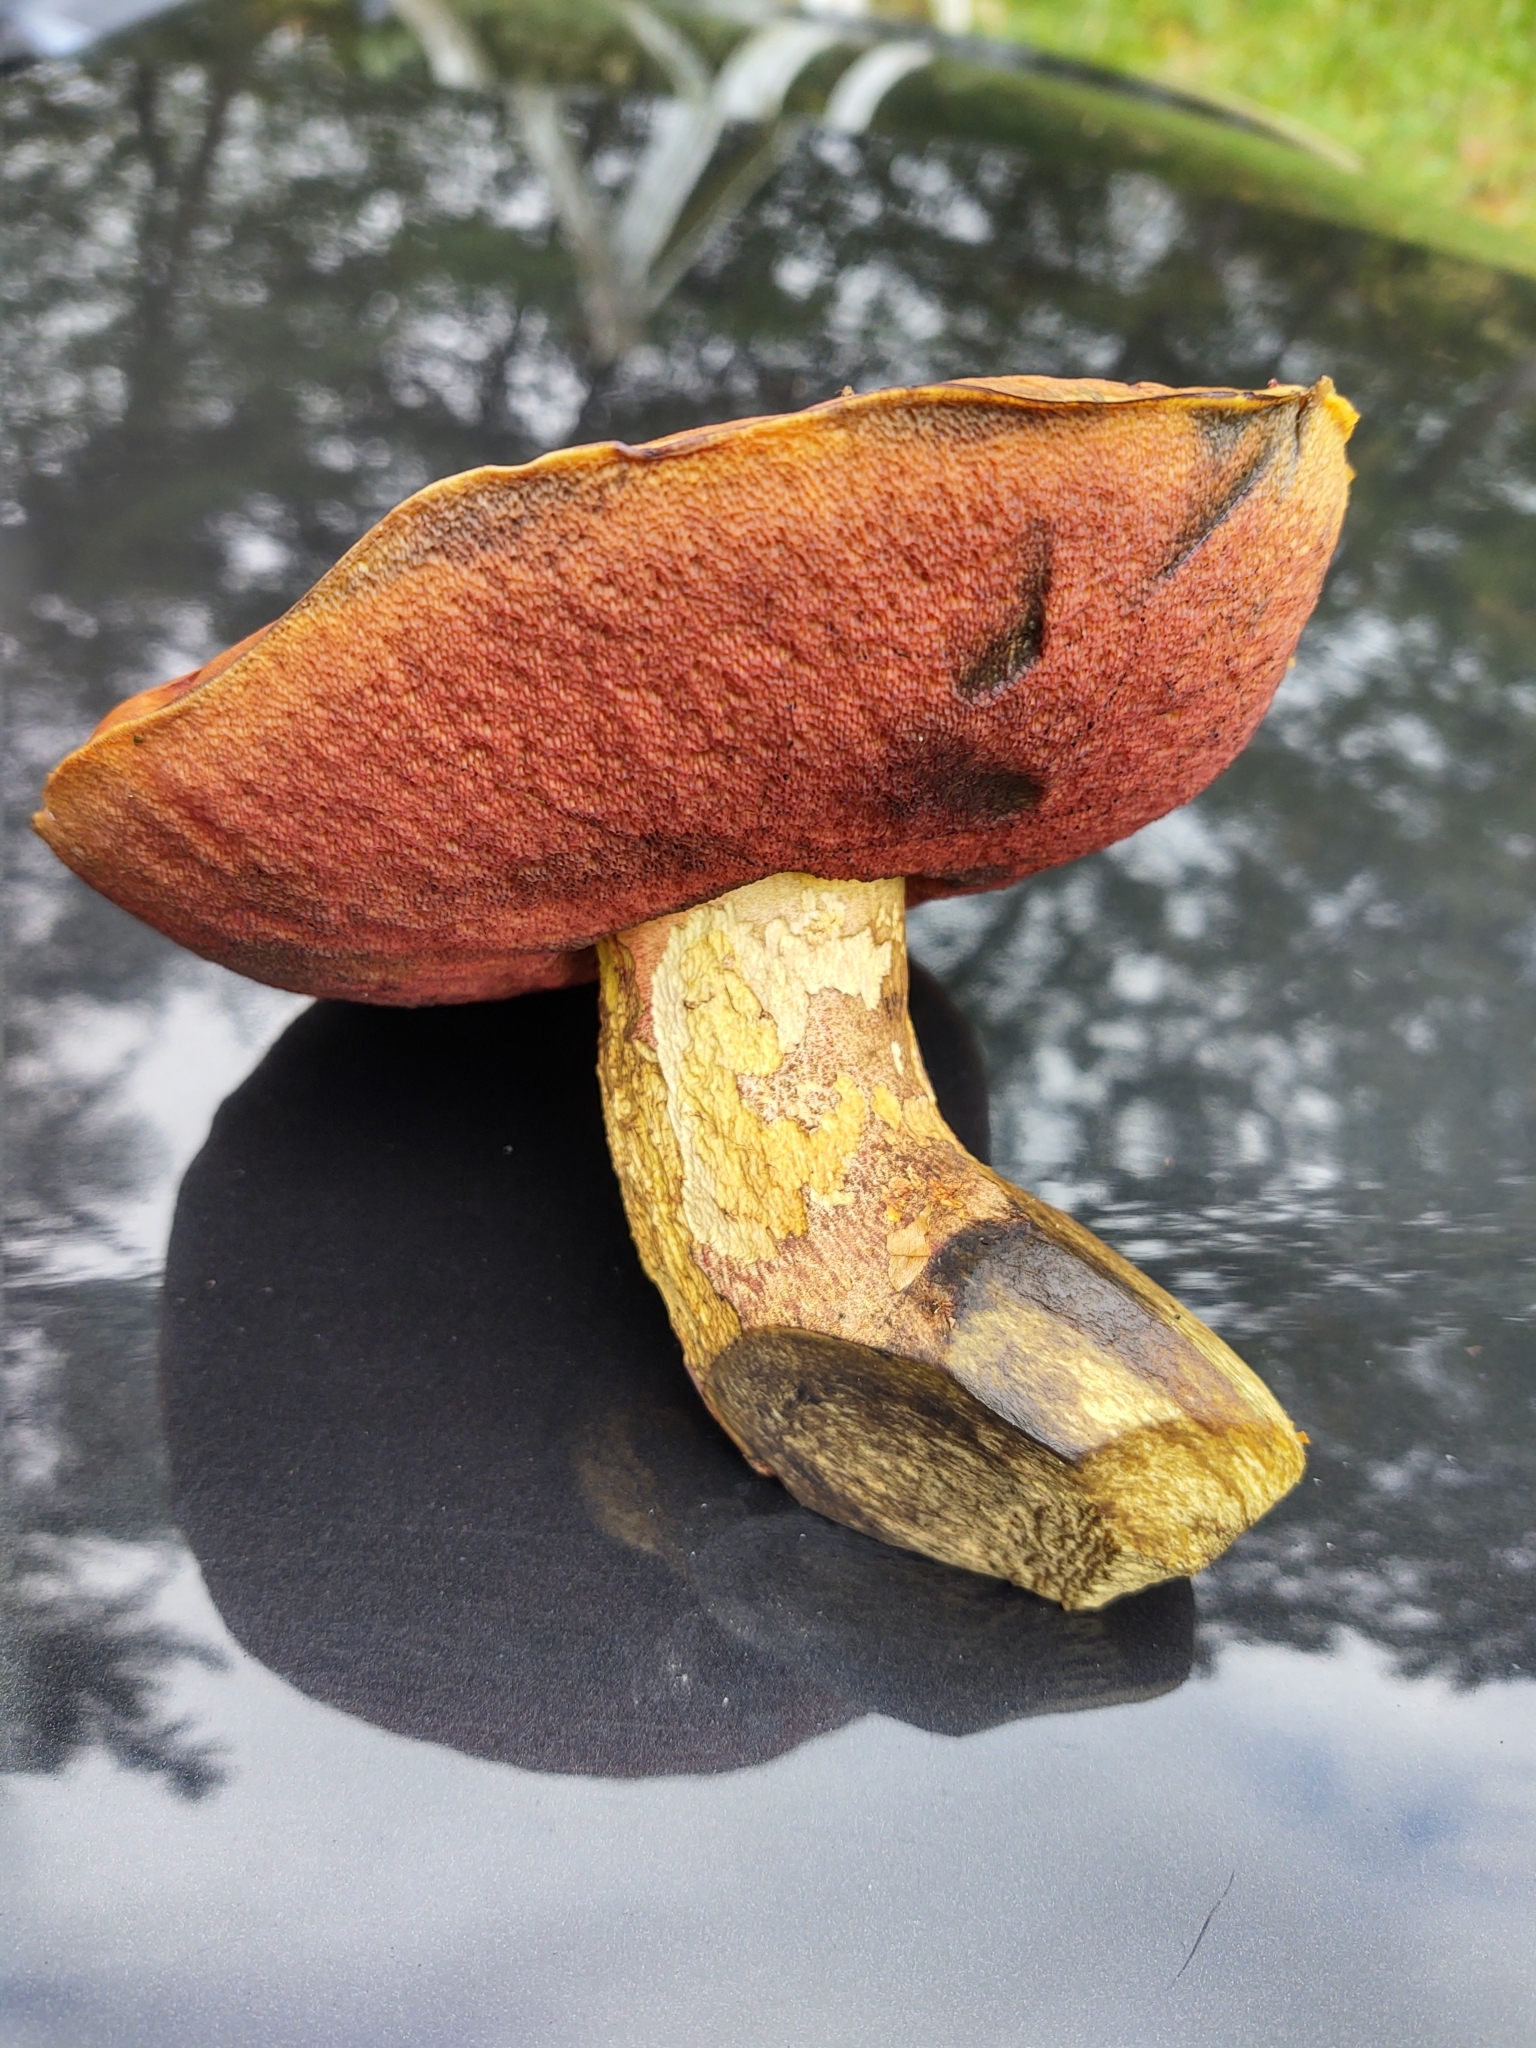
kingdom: Fungi
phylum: Basidiomycota
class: Agaricomycetes
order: Boletales
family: Boletaceae
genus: Neoboletus
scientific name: Neoboletus luridiformis
